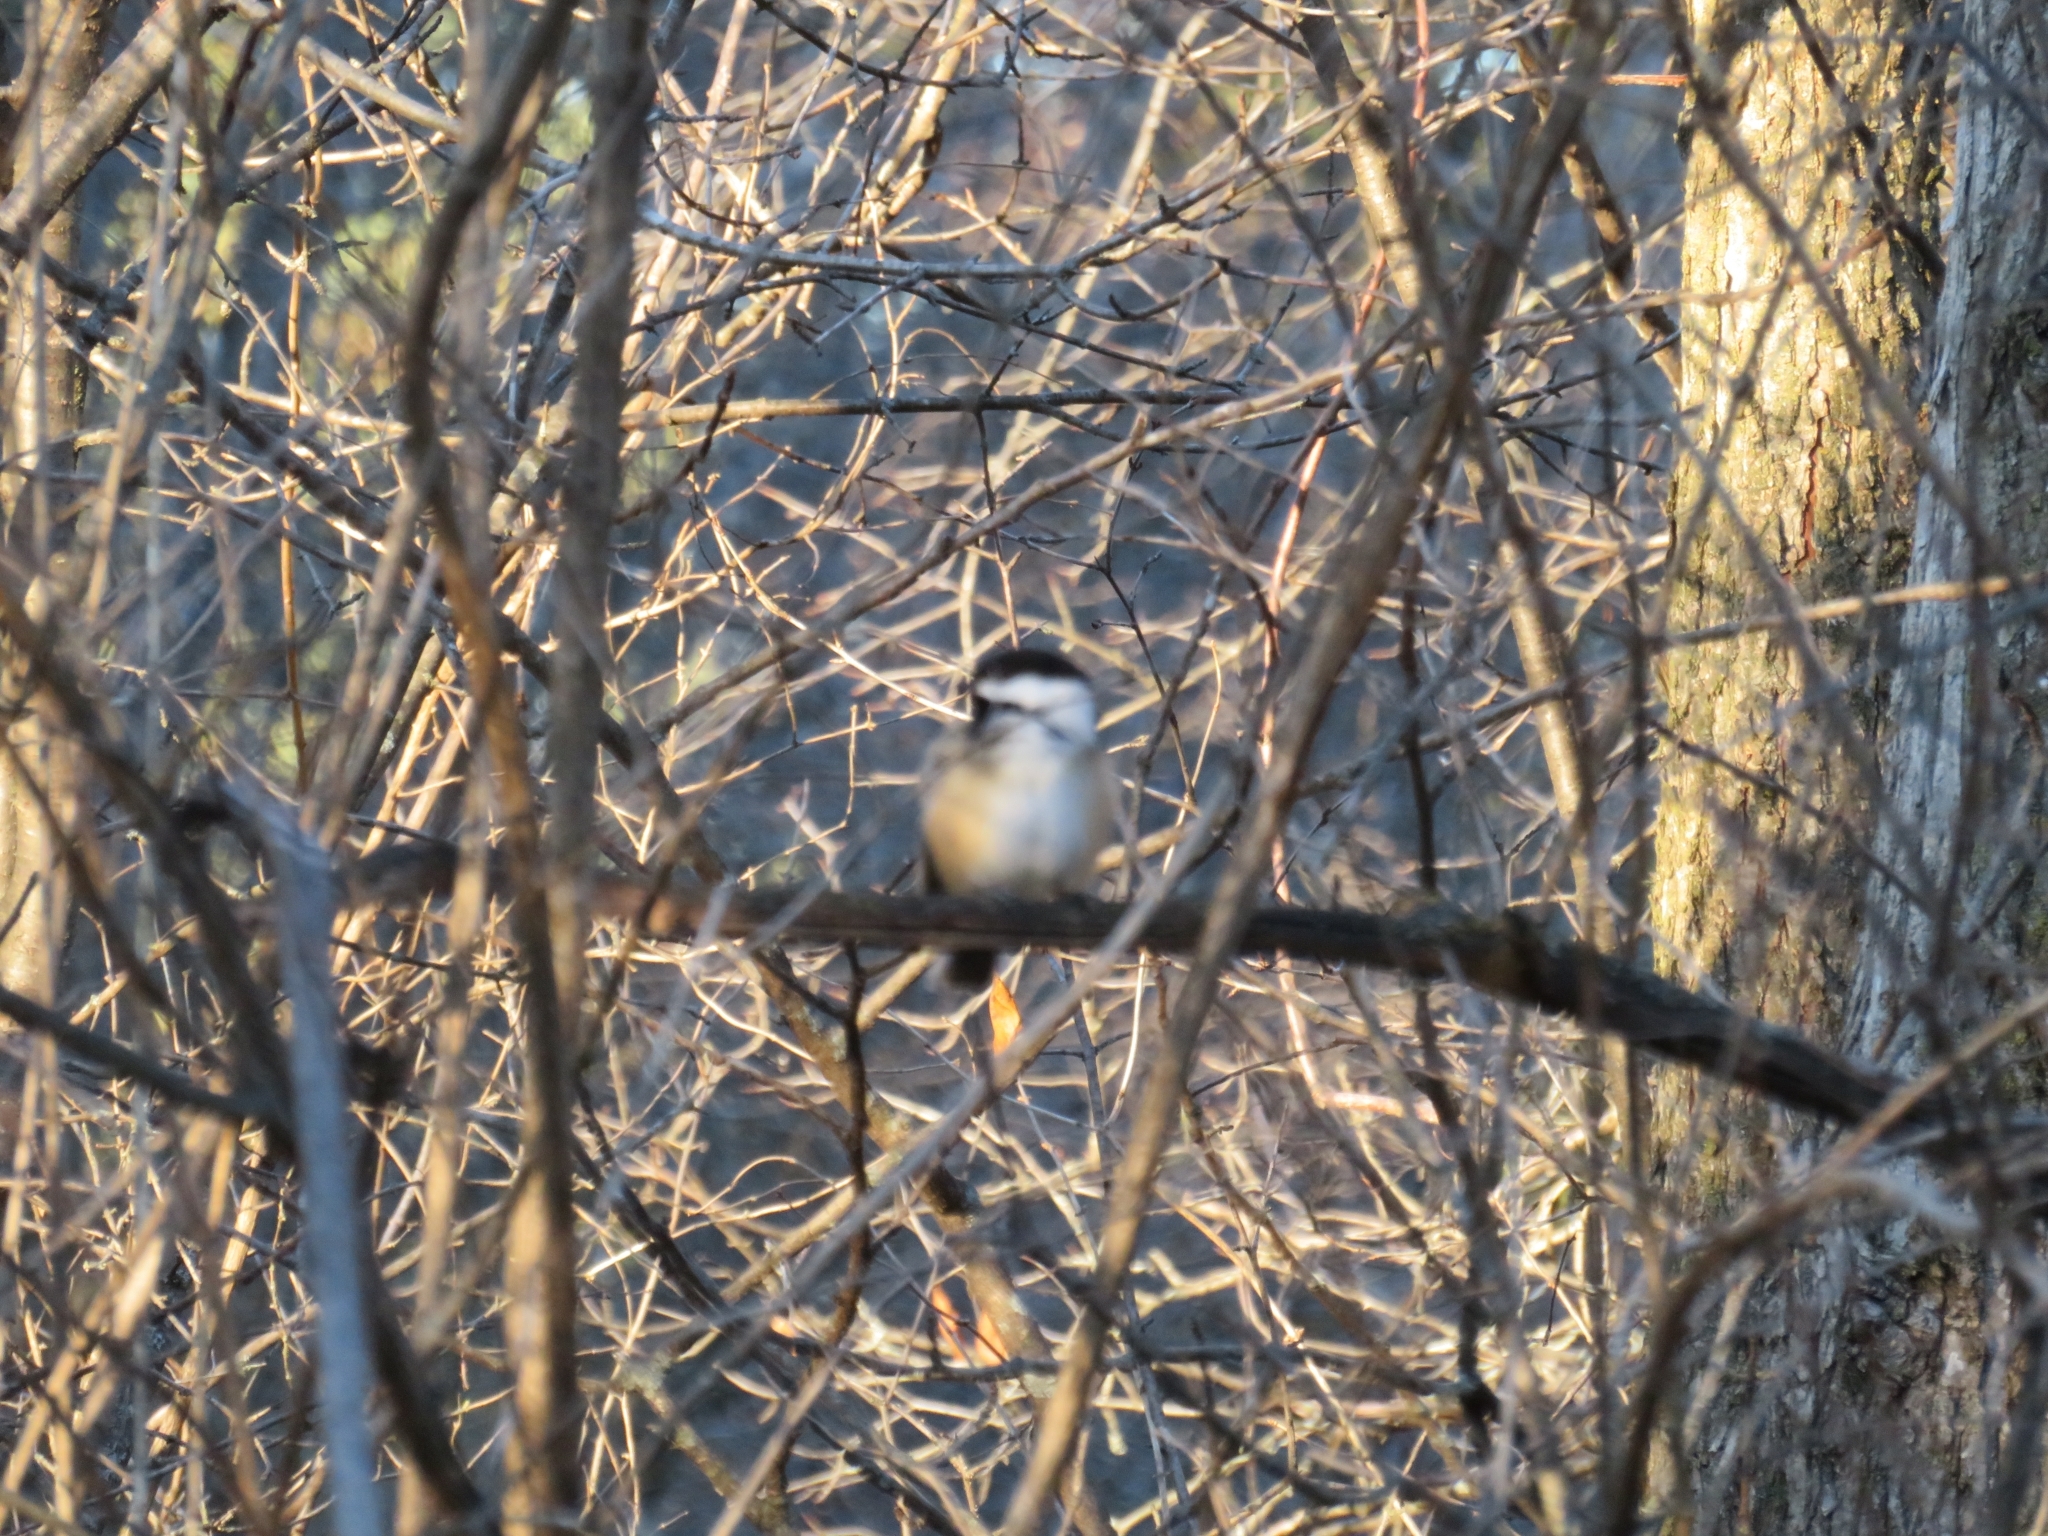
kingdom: Animalia
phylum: Chordata
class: Aves
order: Passeriformes
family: Paridae
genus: Poecile
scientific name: Poecile atricapillus
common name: Black-capped chickadee
